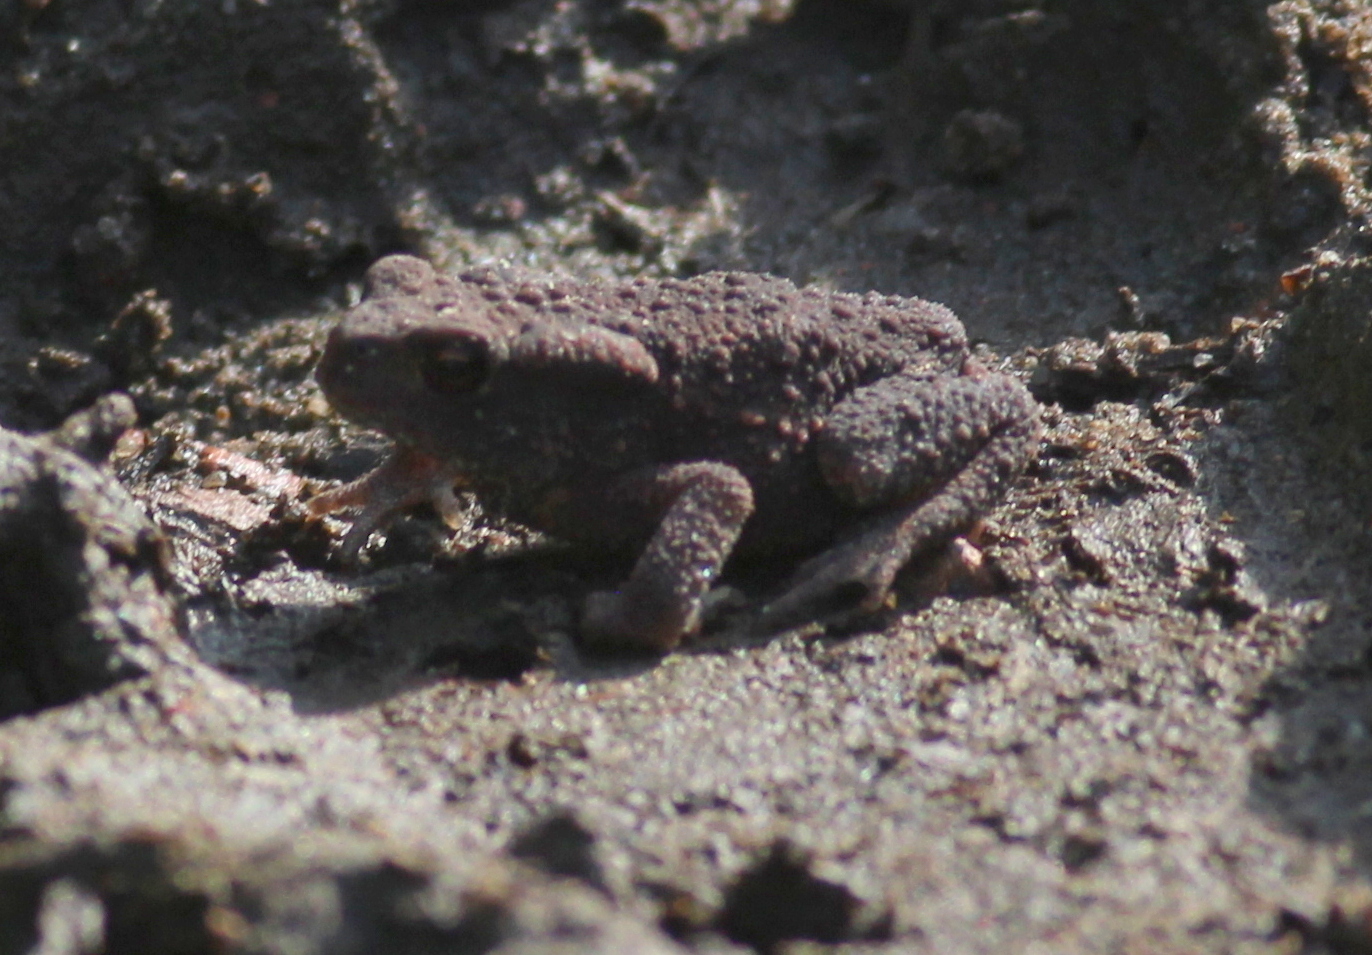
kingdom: Animalia
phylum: Chordata
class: Amphibia
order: Anura
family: Bufonidae
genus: Bufo
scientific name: Bufo bufo
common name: Common toad
